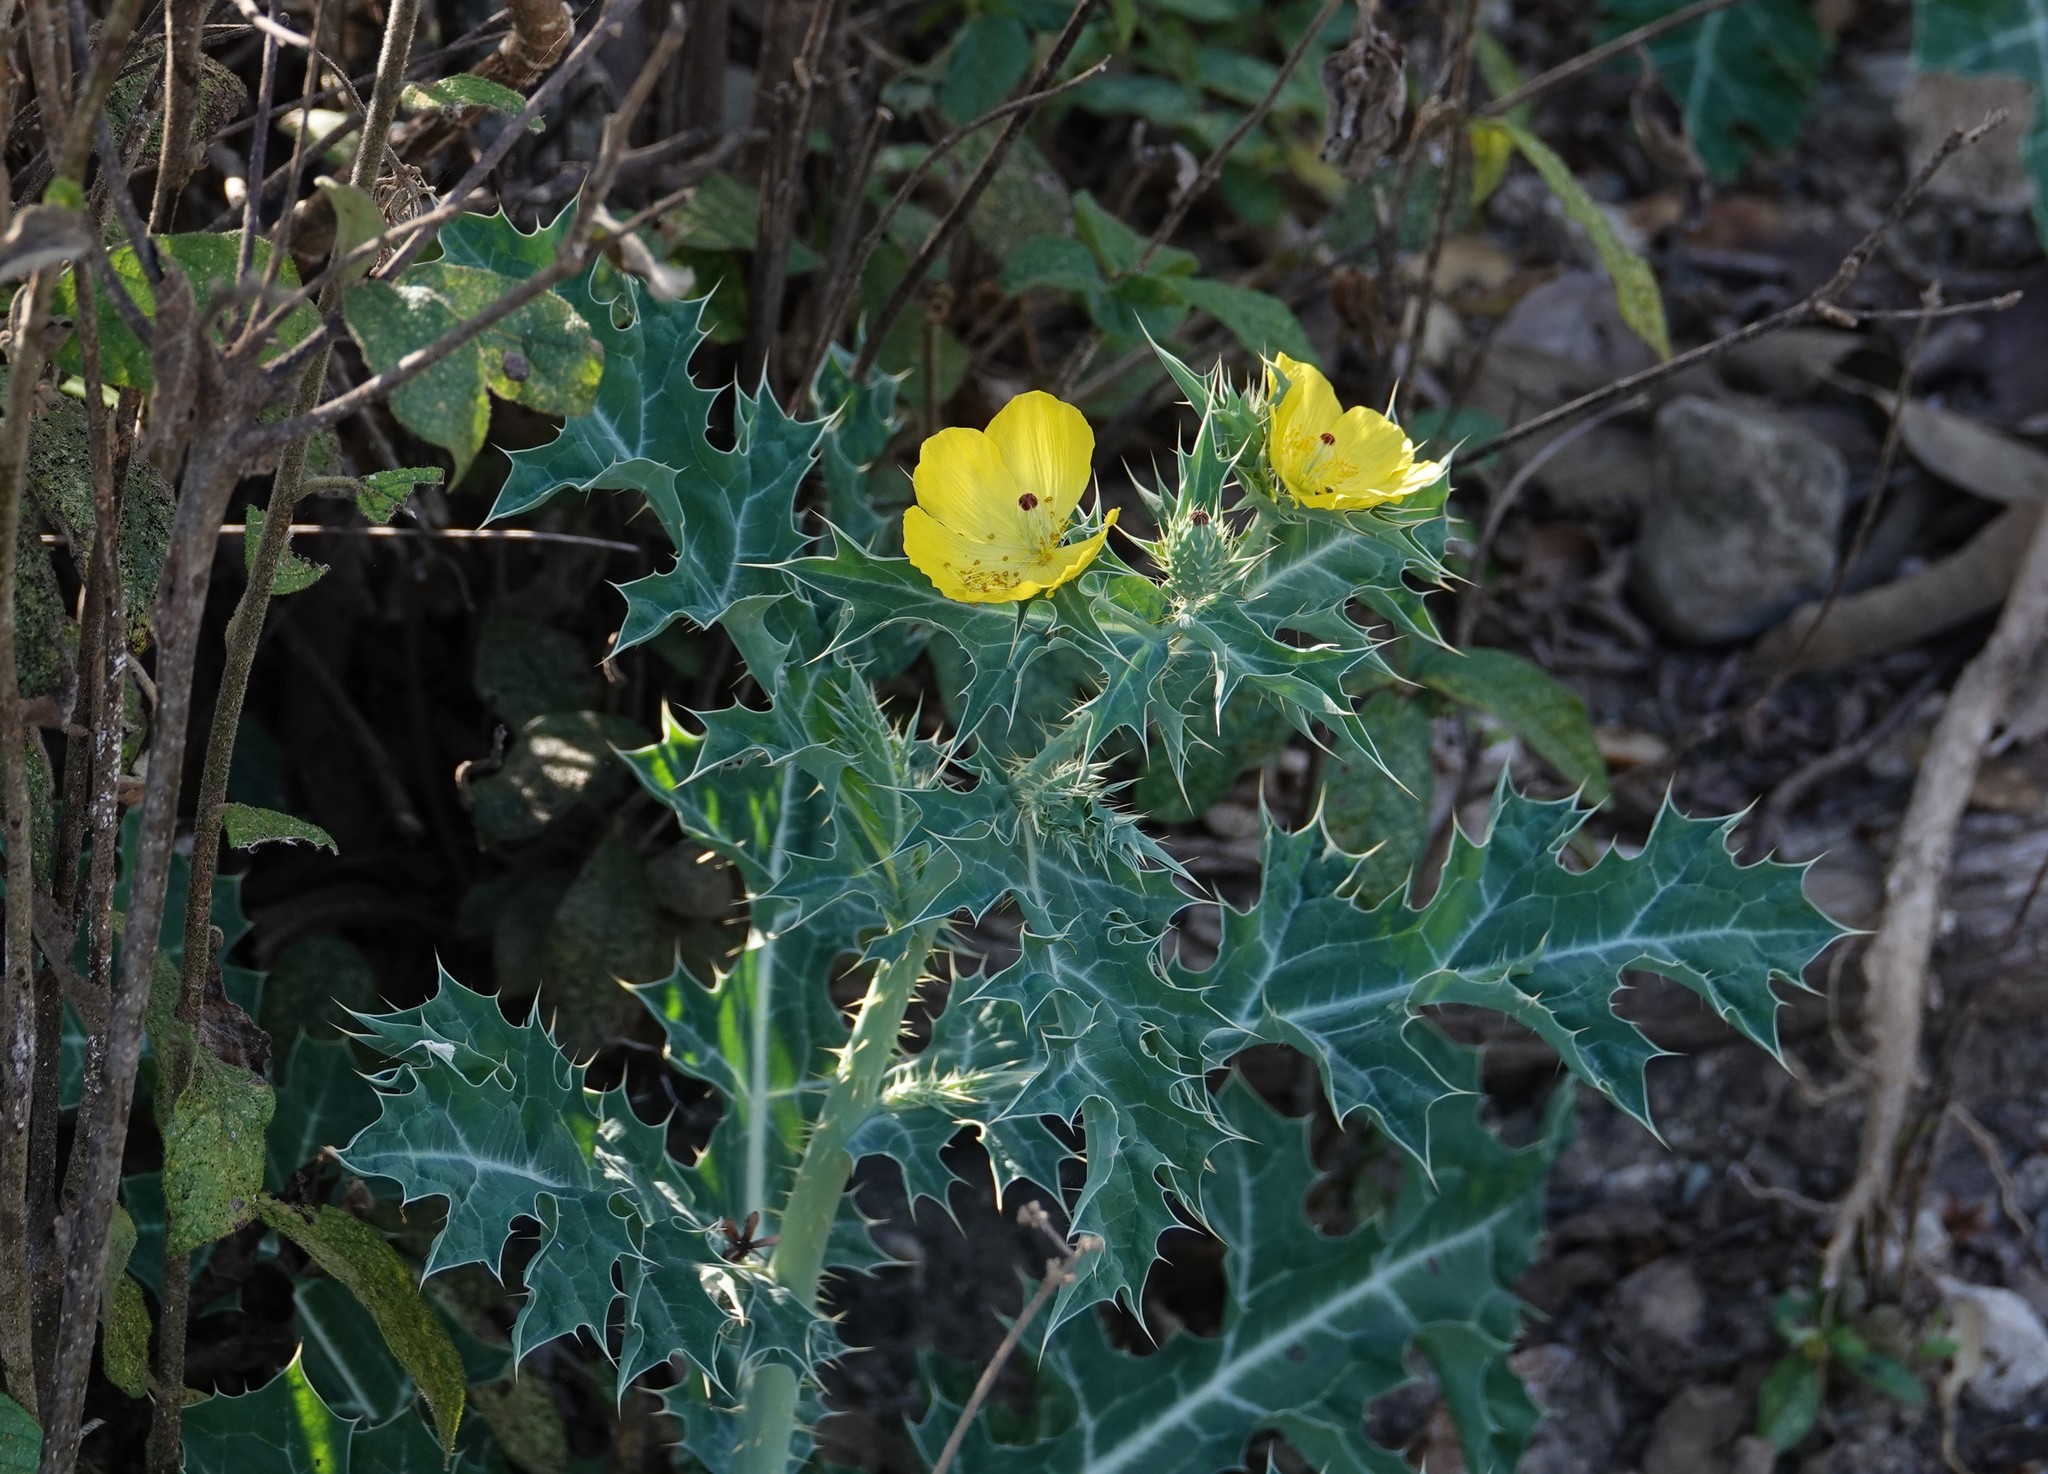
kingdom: Plantae
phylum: Tracheophyta
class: Magnoliopsida
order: Ranunculales
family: Papaveraceae
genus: Argemone
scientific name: Argemone mexicana
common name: Mexican poppy
